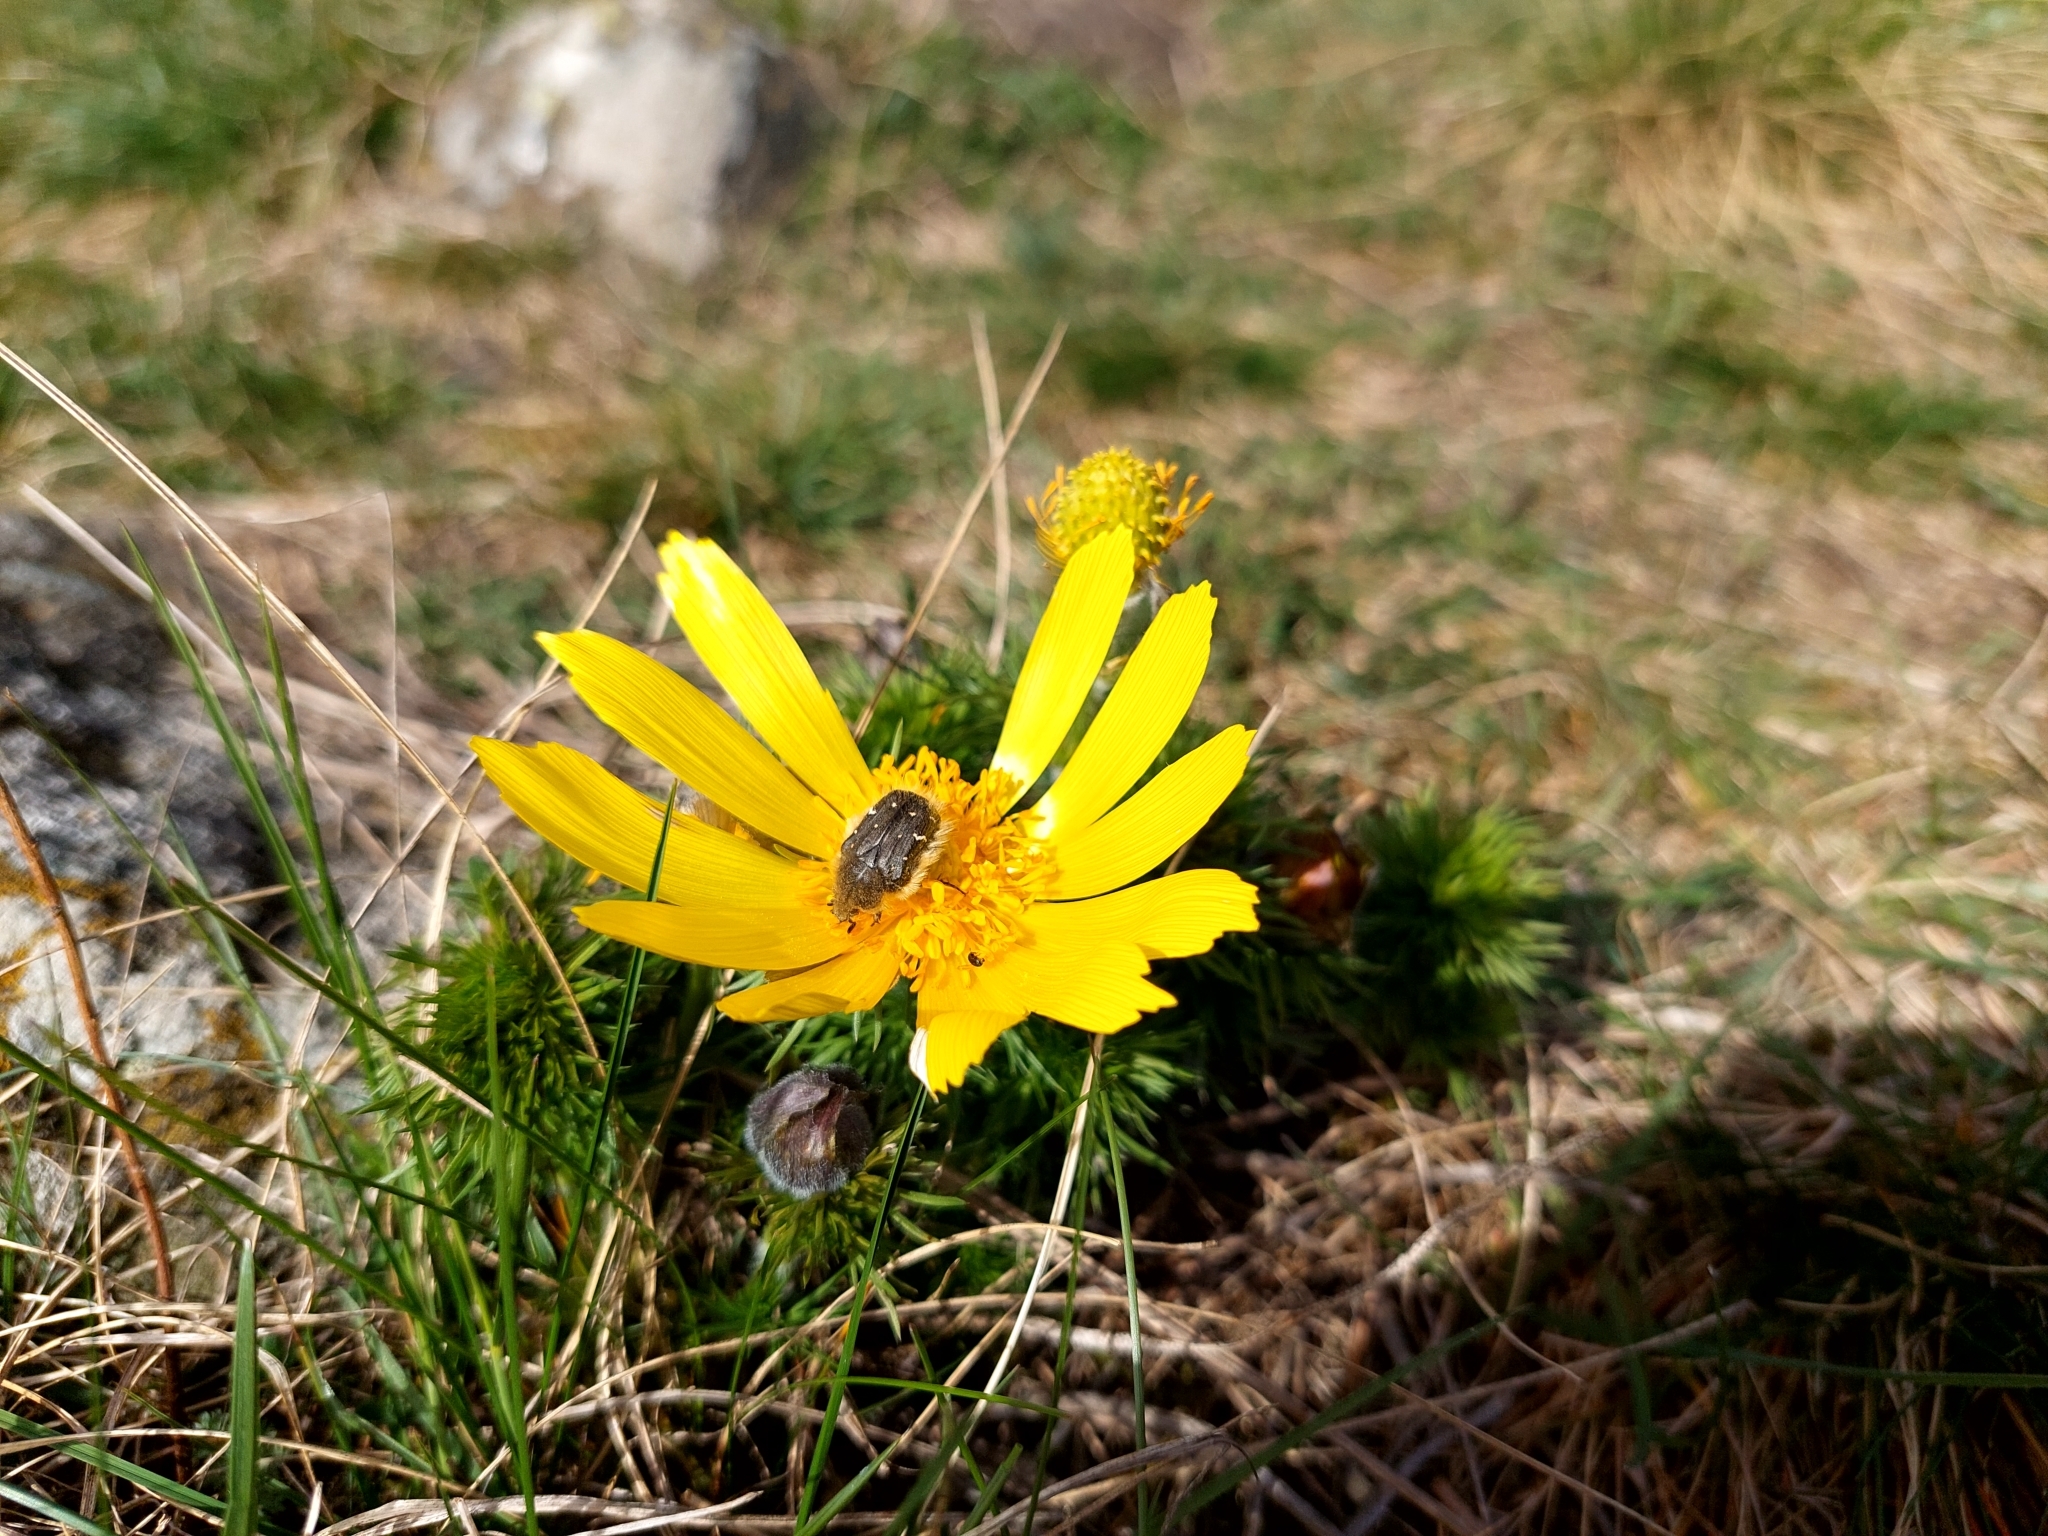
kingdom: Animalia
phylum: Arthropoda
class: Insecta
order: Coleoptera
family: Scarabaeidae
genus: Tropinota
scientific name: Tropinota hirta
